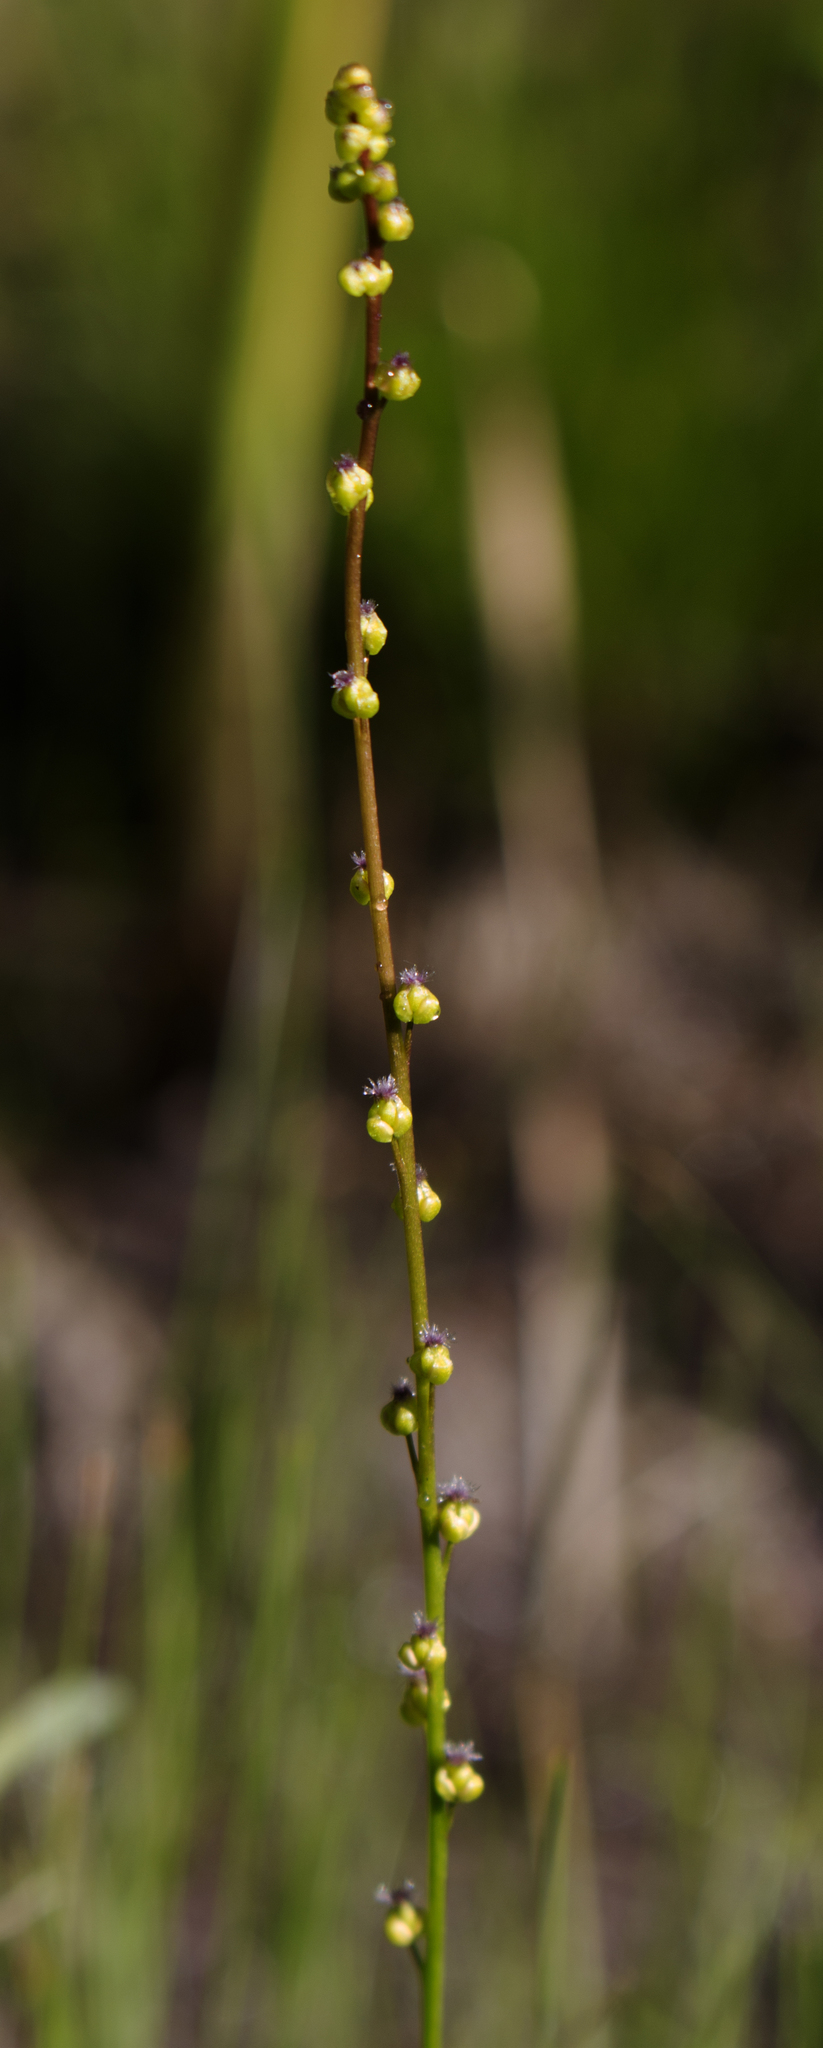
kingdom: Plantae
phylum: Tracheophyta
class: Liliopsida
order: Alismatales
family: Juncaginaceae
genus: Triglochin
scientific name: Triglochin palustris
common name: Marsh arrowgrass
